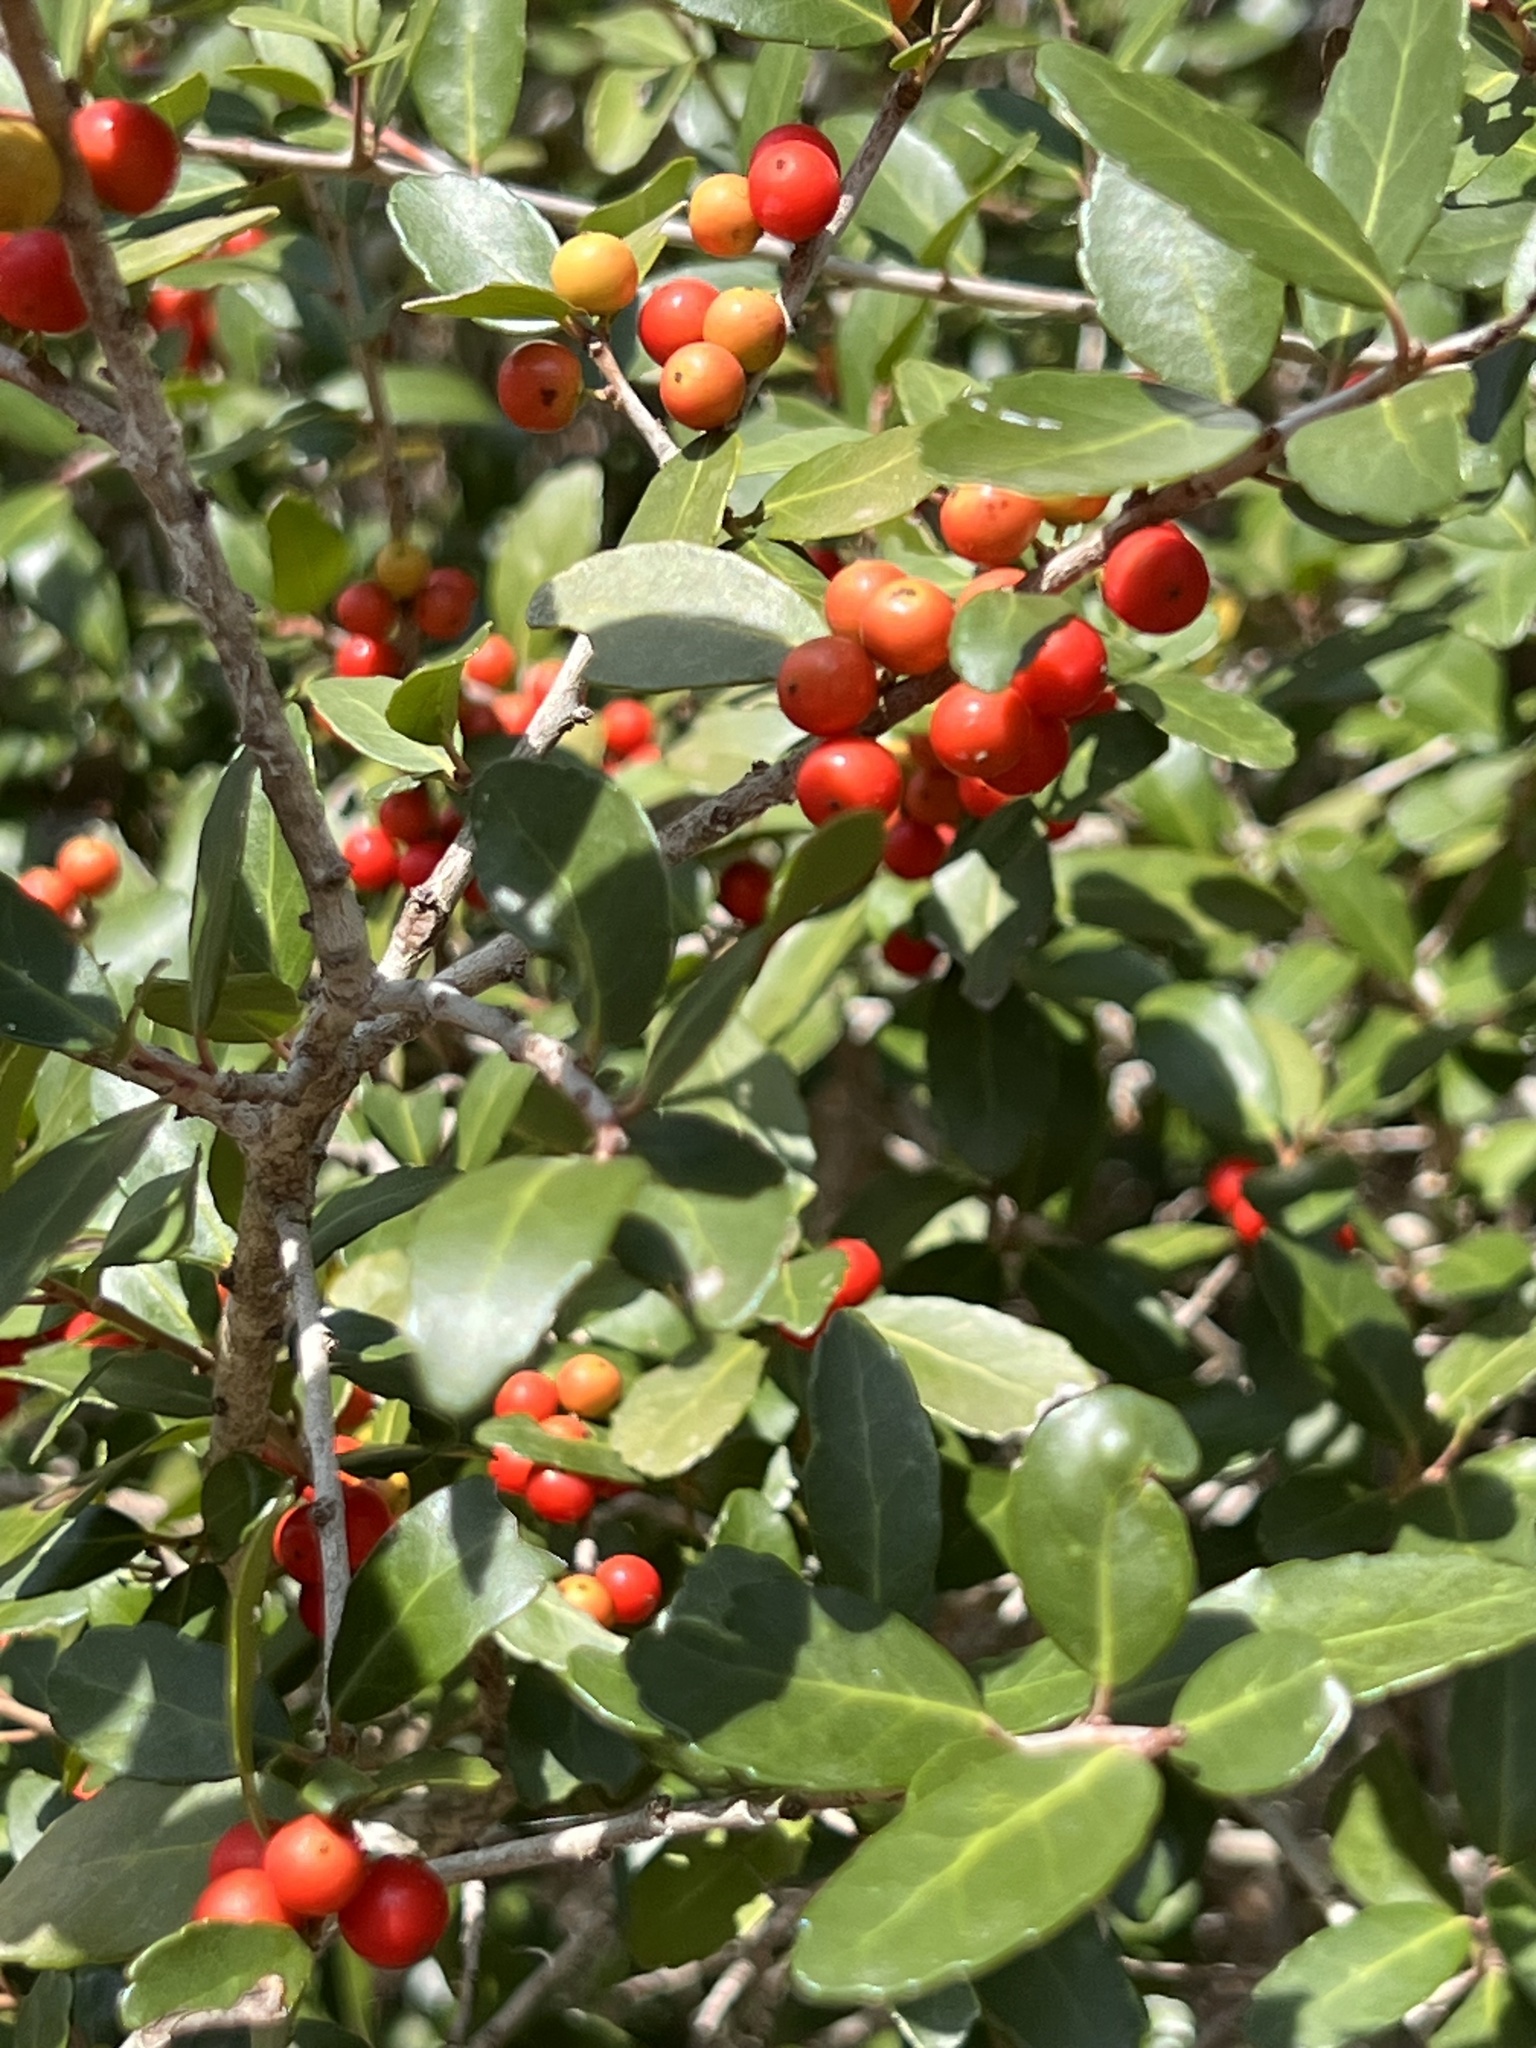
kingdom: Plantae
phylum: Tracheophyta
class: Magnoliopsida
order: Aquifoliales
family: Aquifoliaceae
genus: Ilex
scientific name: Ilex vomitoria
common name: Yaupon holly
